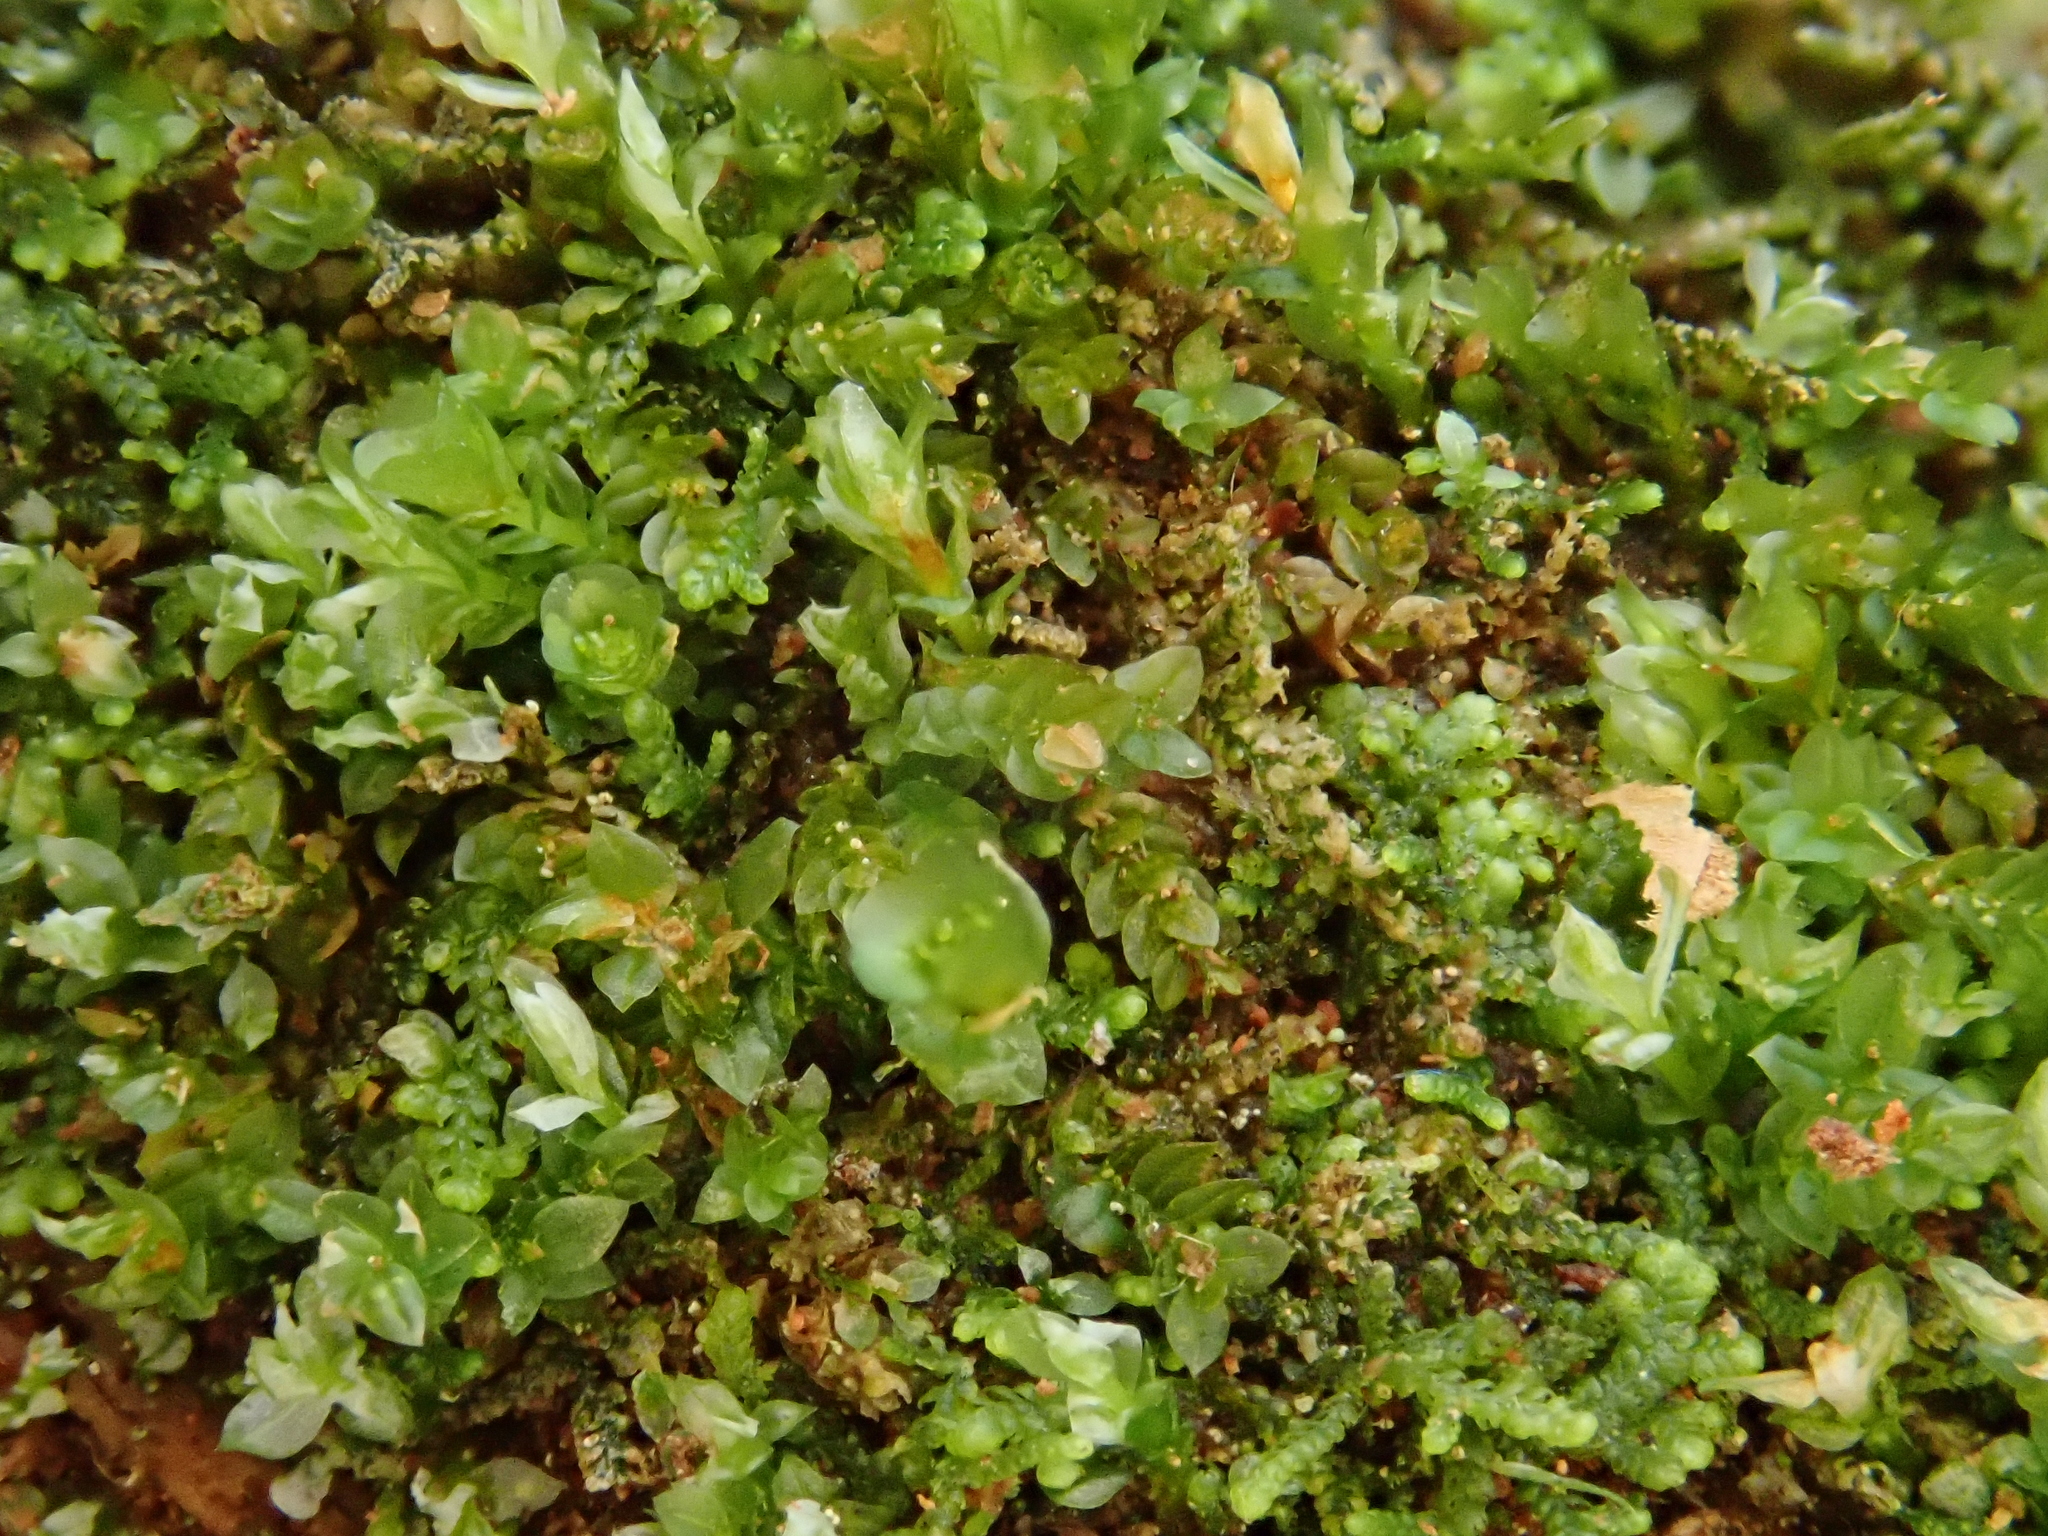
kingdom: Plantae
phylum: Bryophyta
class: Polytrichopsida
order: Tetraphidales
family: Tetraphidaceae
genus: Tetraphis
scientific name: Tetraphis pellucida
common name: Common four-toothed moss
